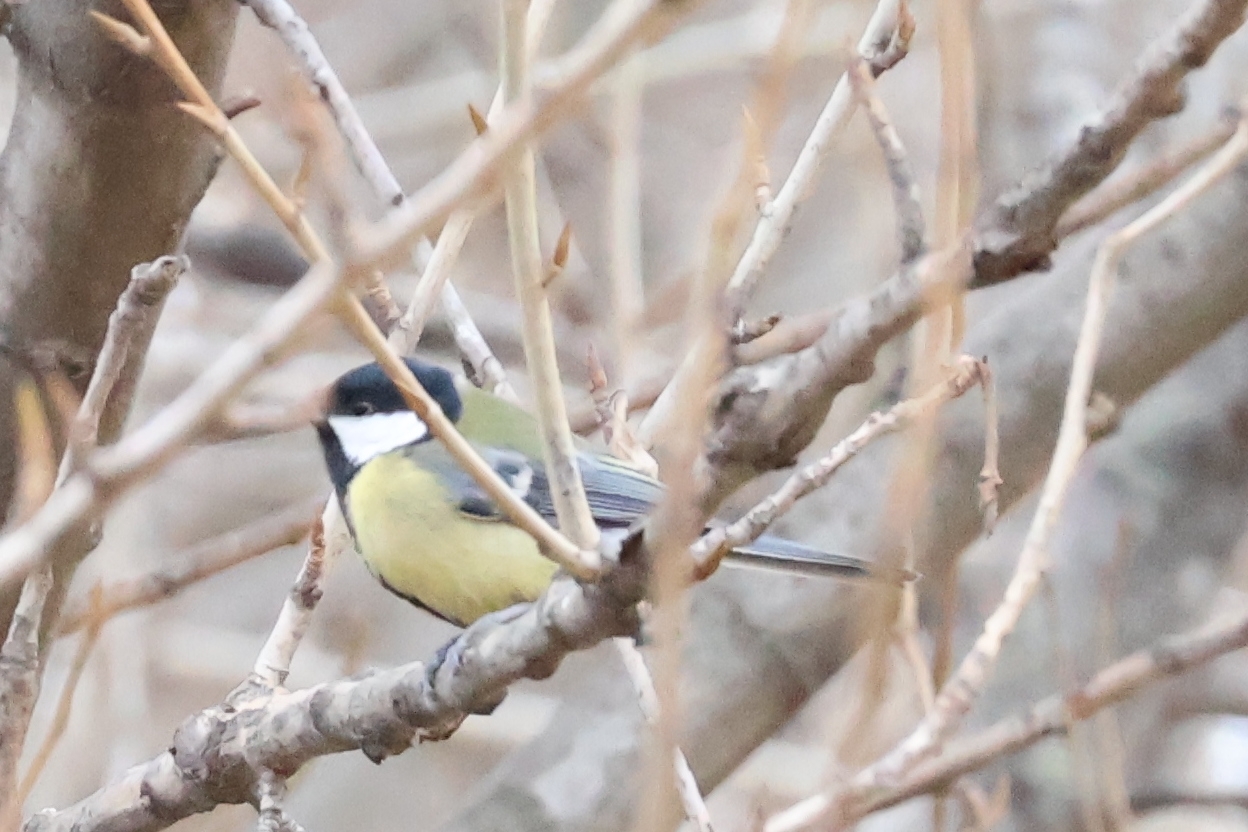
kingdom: Animalia
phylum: Chordata
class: Aves
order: Passeriformes
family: Paridae
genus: Parus
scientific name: Parus major
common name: Great tit
